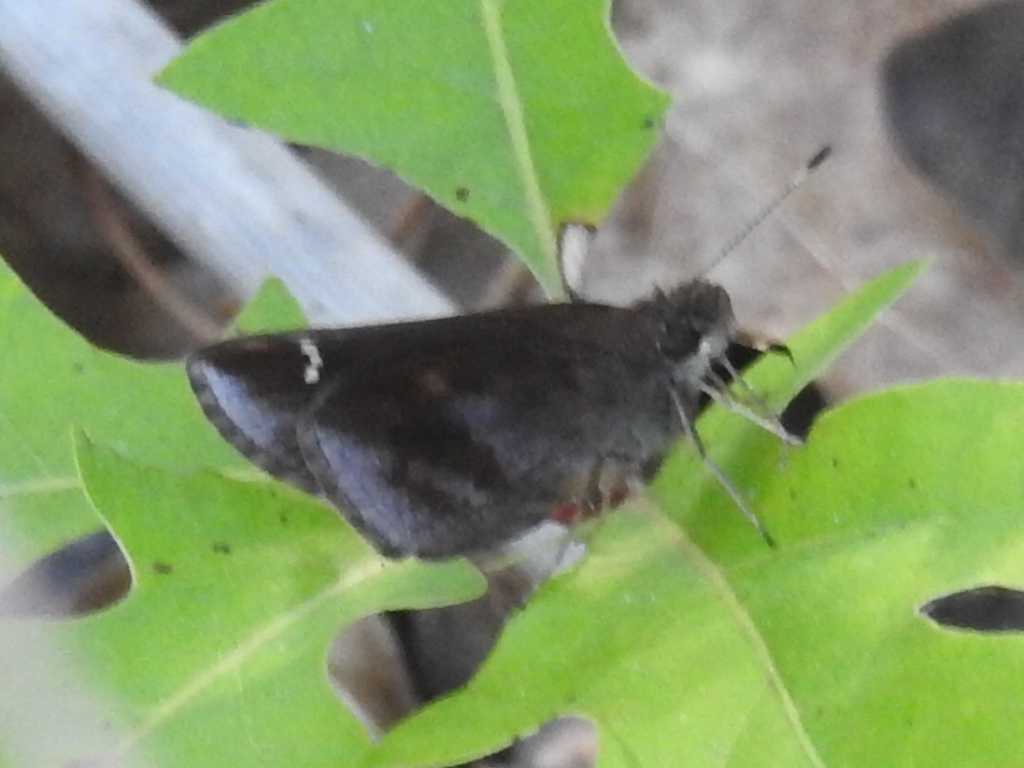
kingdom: Animalia
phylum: Arthropoda
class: Insecta
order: Lepidoptera
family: Hesperiidae
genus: Lerema
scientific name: Lerema accius
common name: Clouded skipper
